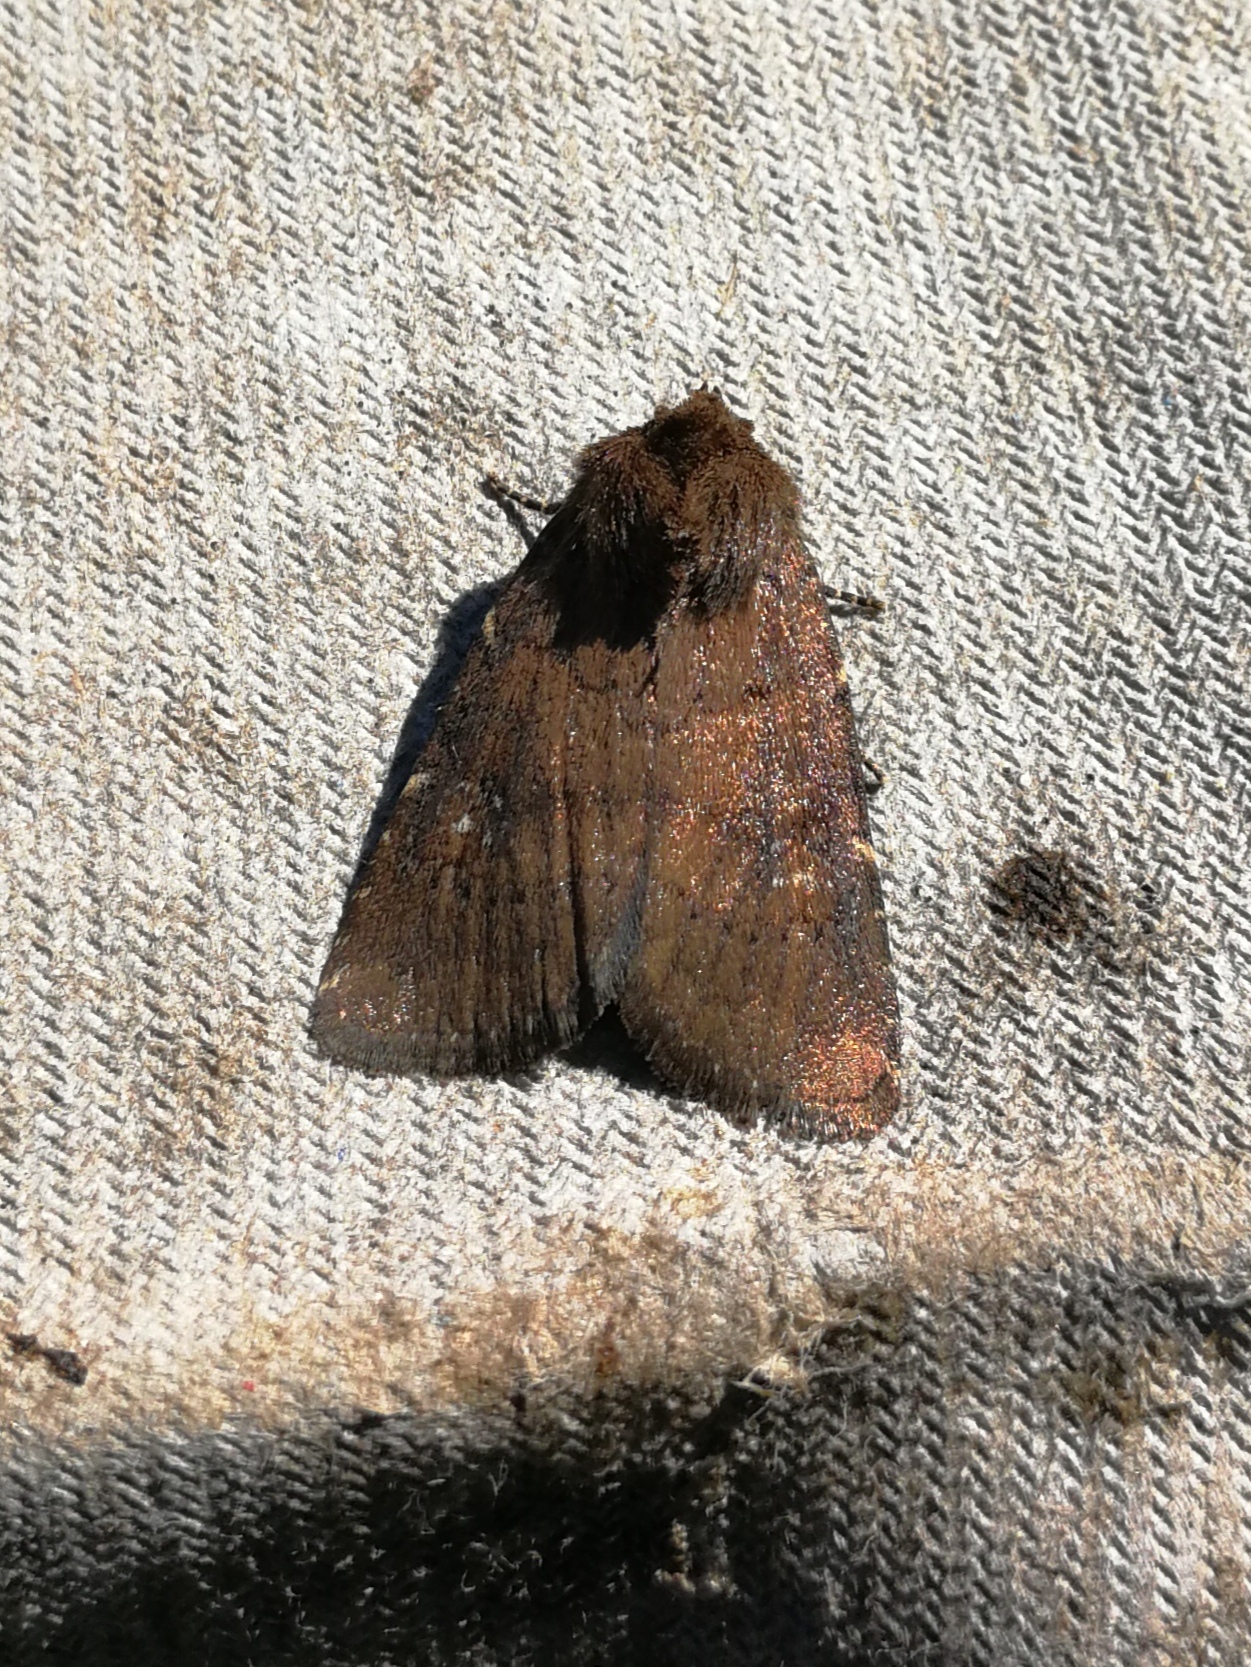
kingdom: Animalia
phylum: Arthropoda
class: Insecta
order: Lepidoptera
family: Noctuidae
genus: Charanyca
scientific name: Charanyca ferruginea
